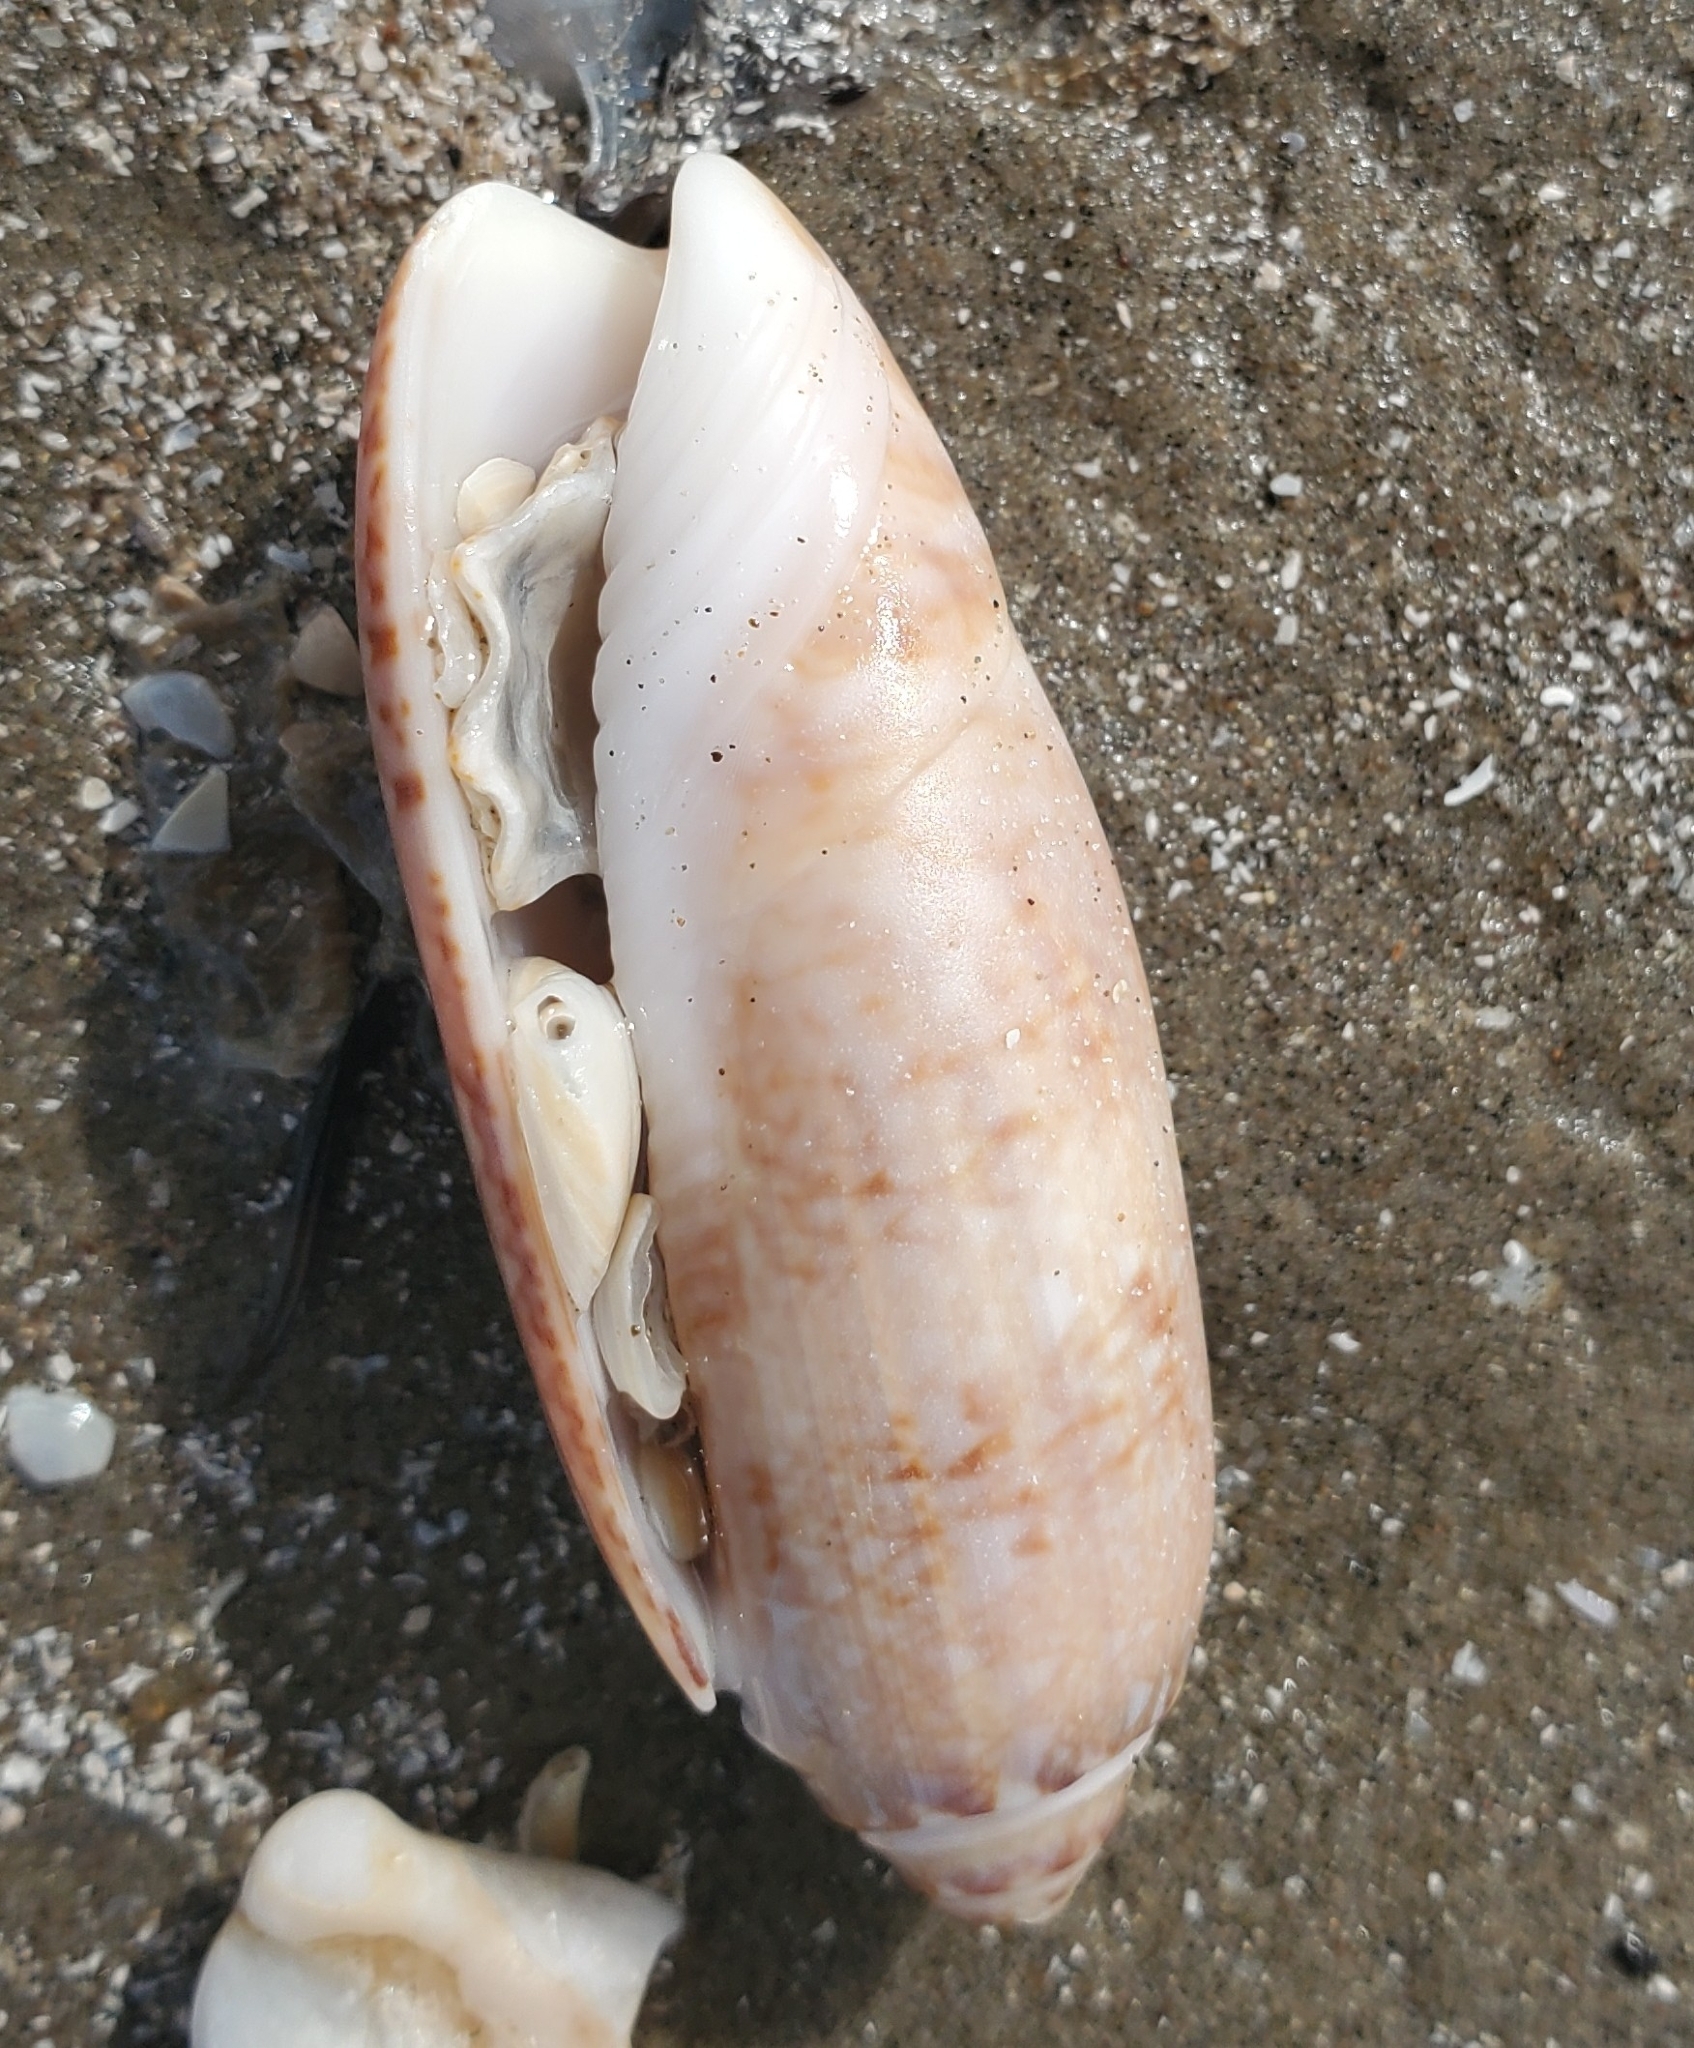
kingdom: Animalia
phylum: Mollusca
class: Gastropoda
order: Neogastropoda
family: Olividae
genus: Oliva
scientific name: Oliva sayana
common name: Lettered olive
